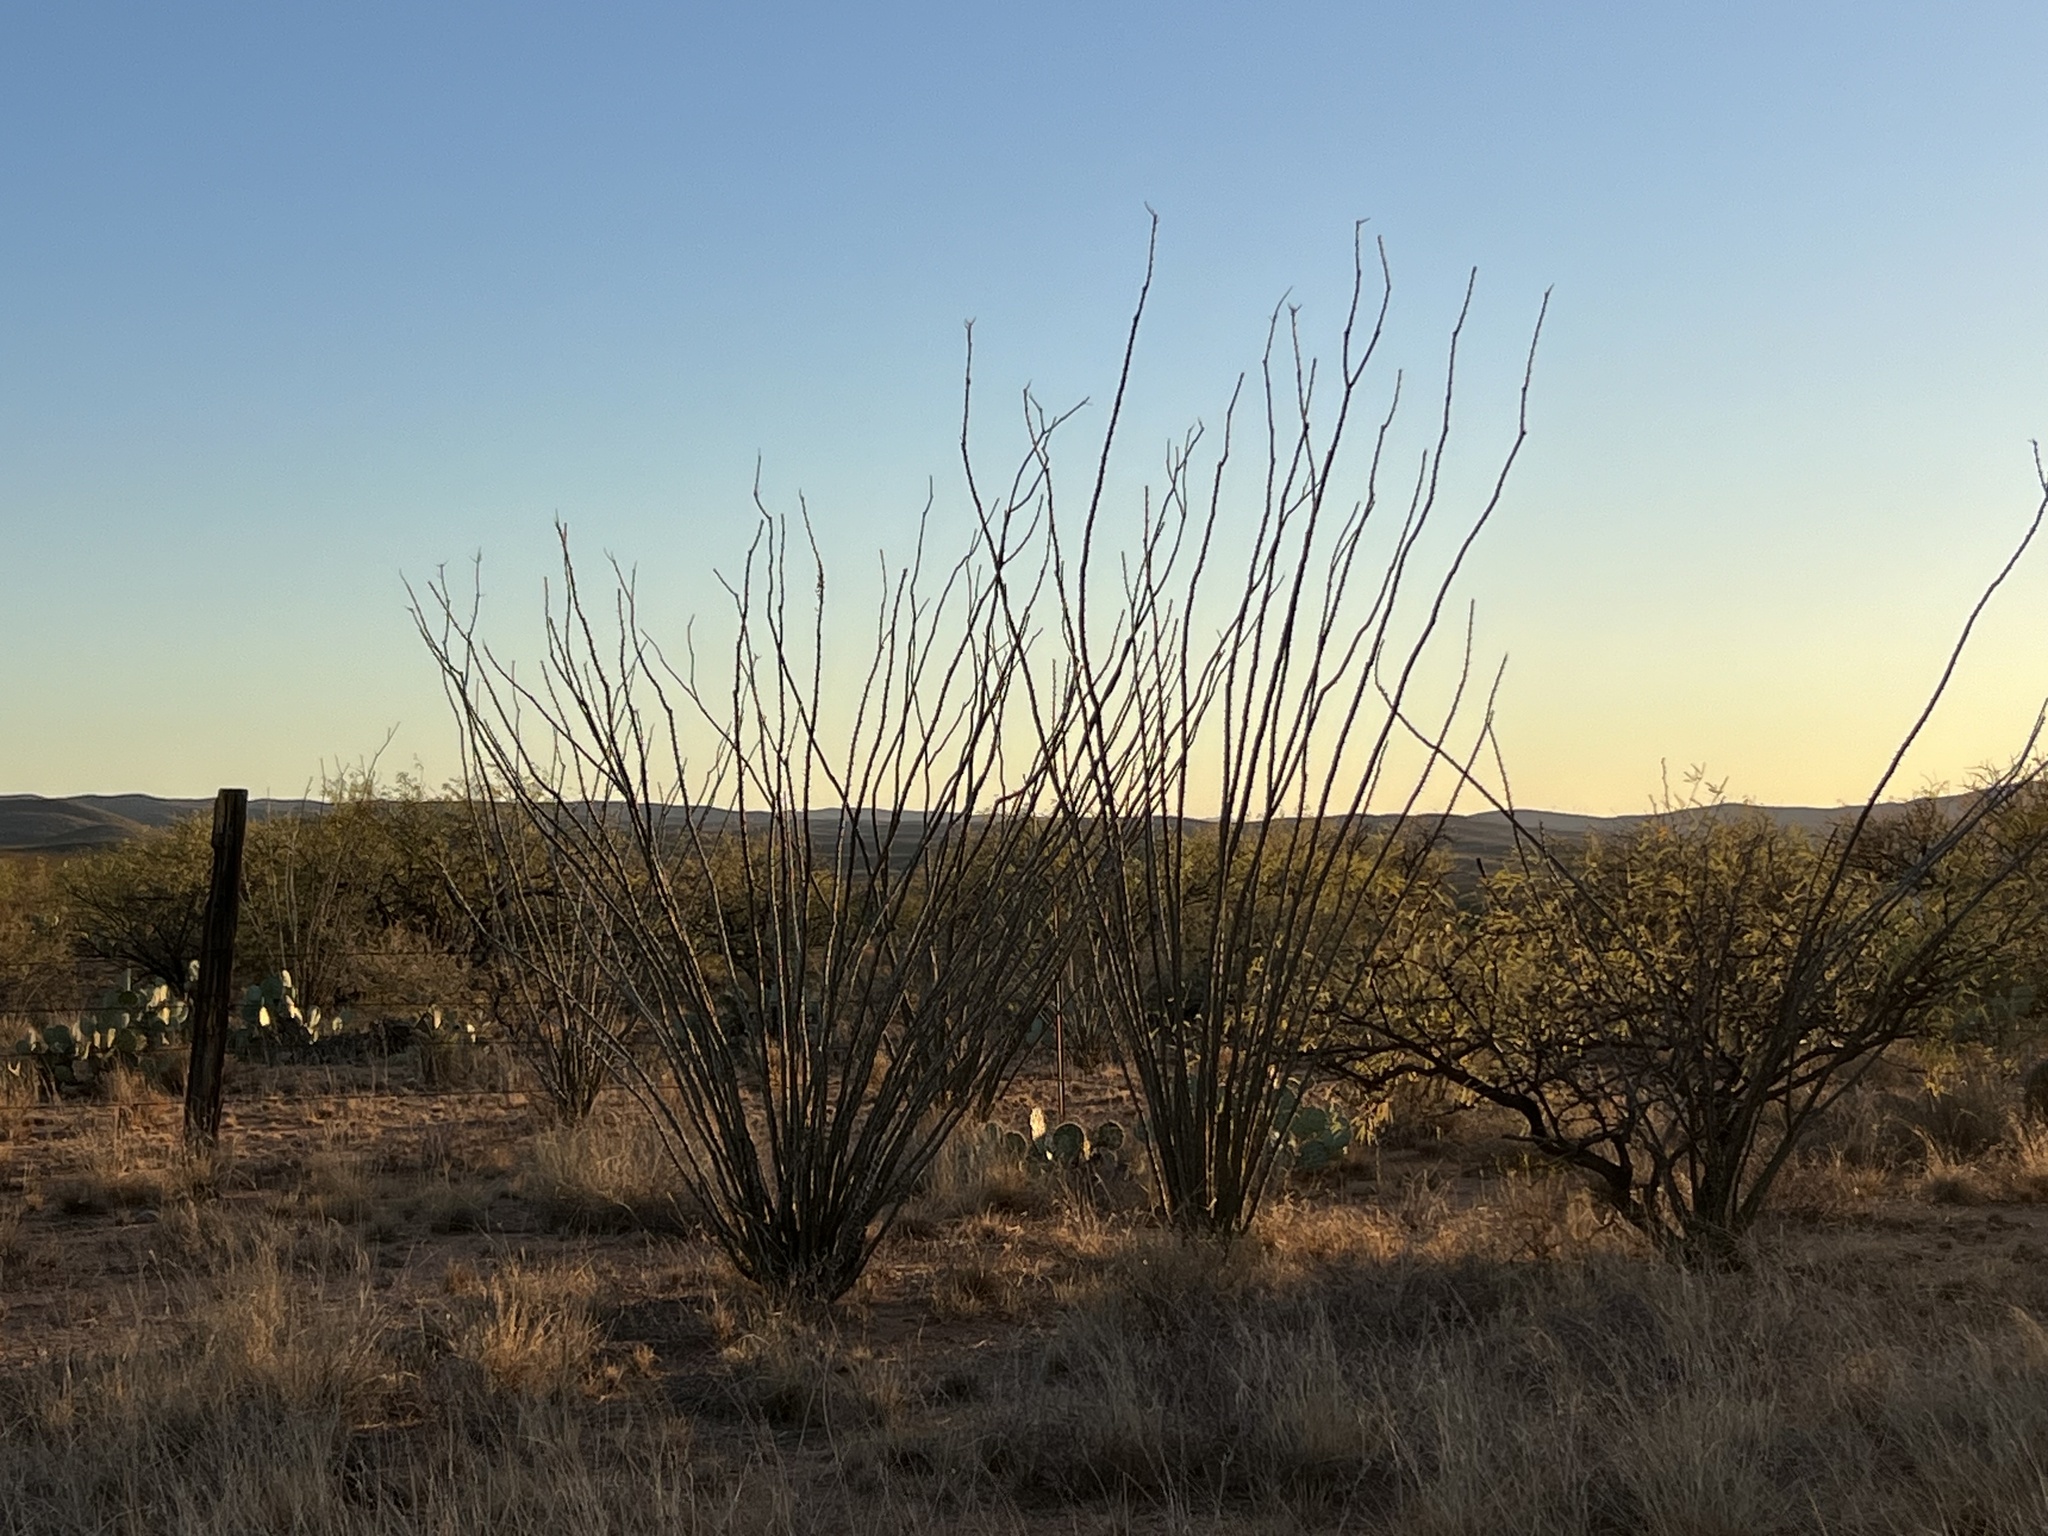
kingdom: Plantae
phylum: Tracheophyta
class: Magnoliopsida
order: Ericales
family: Fouquieriaceae
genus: Fouquieria
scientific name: Fouquieria splendens
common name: Vine-cactus
